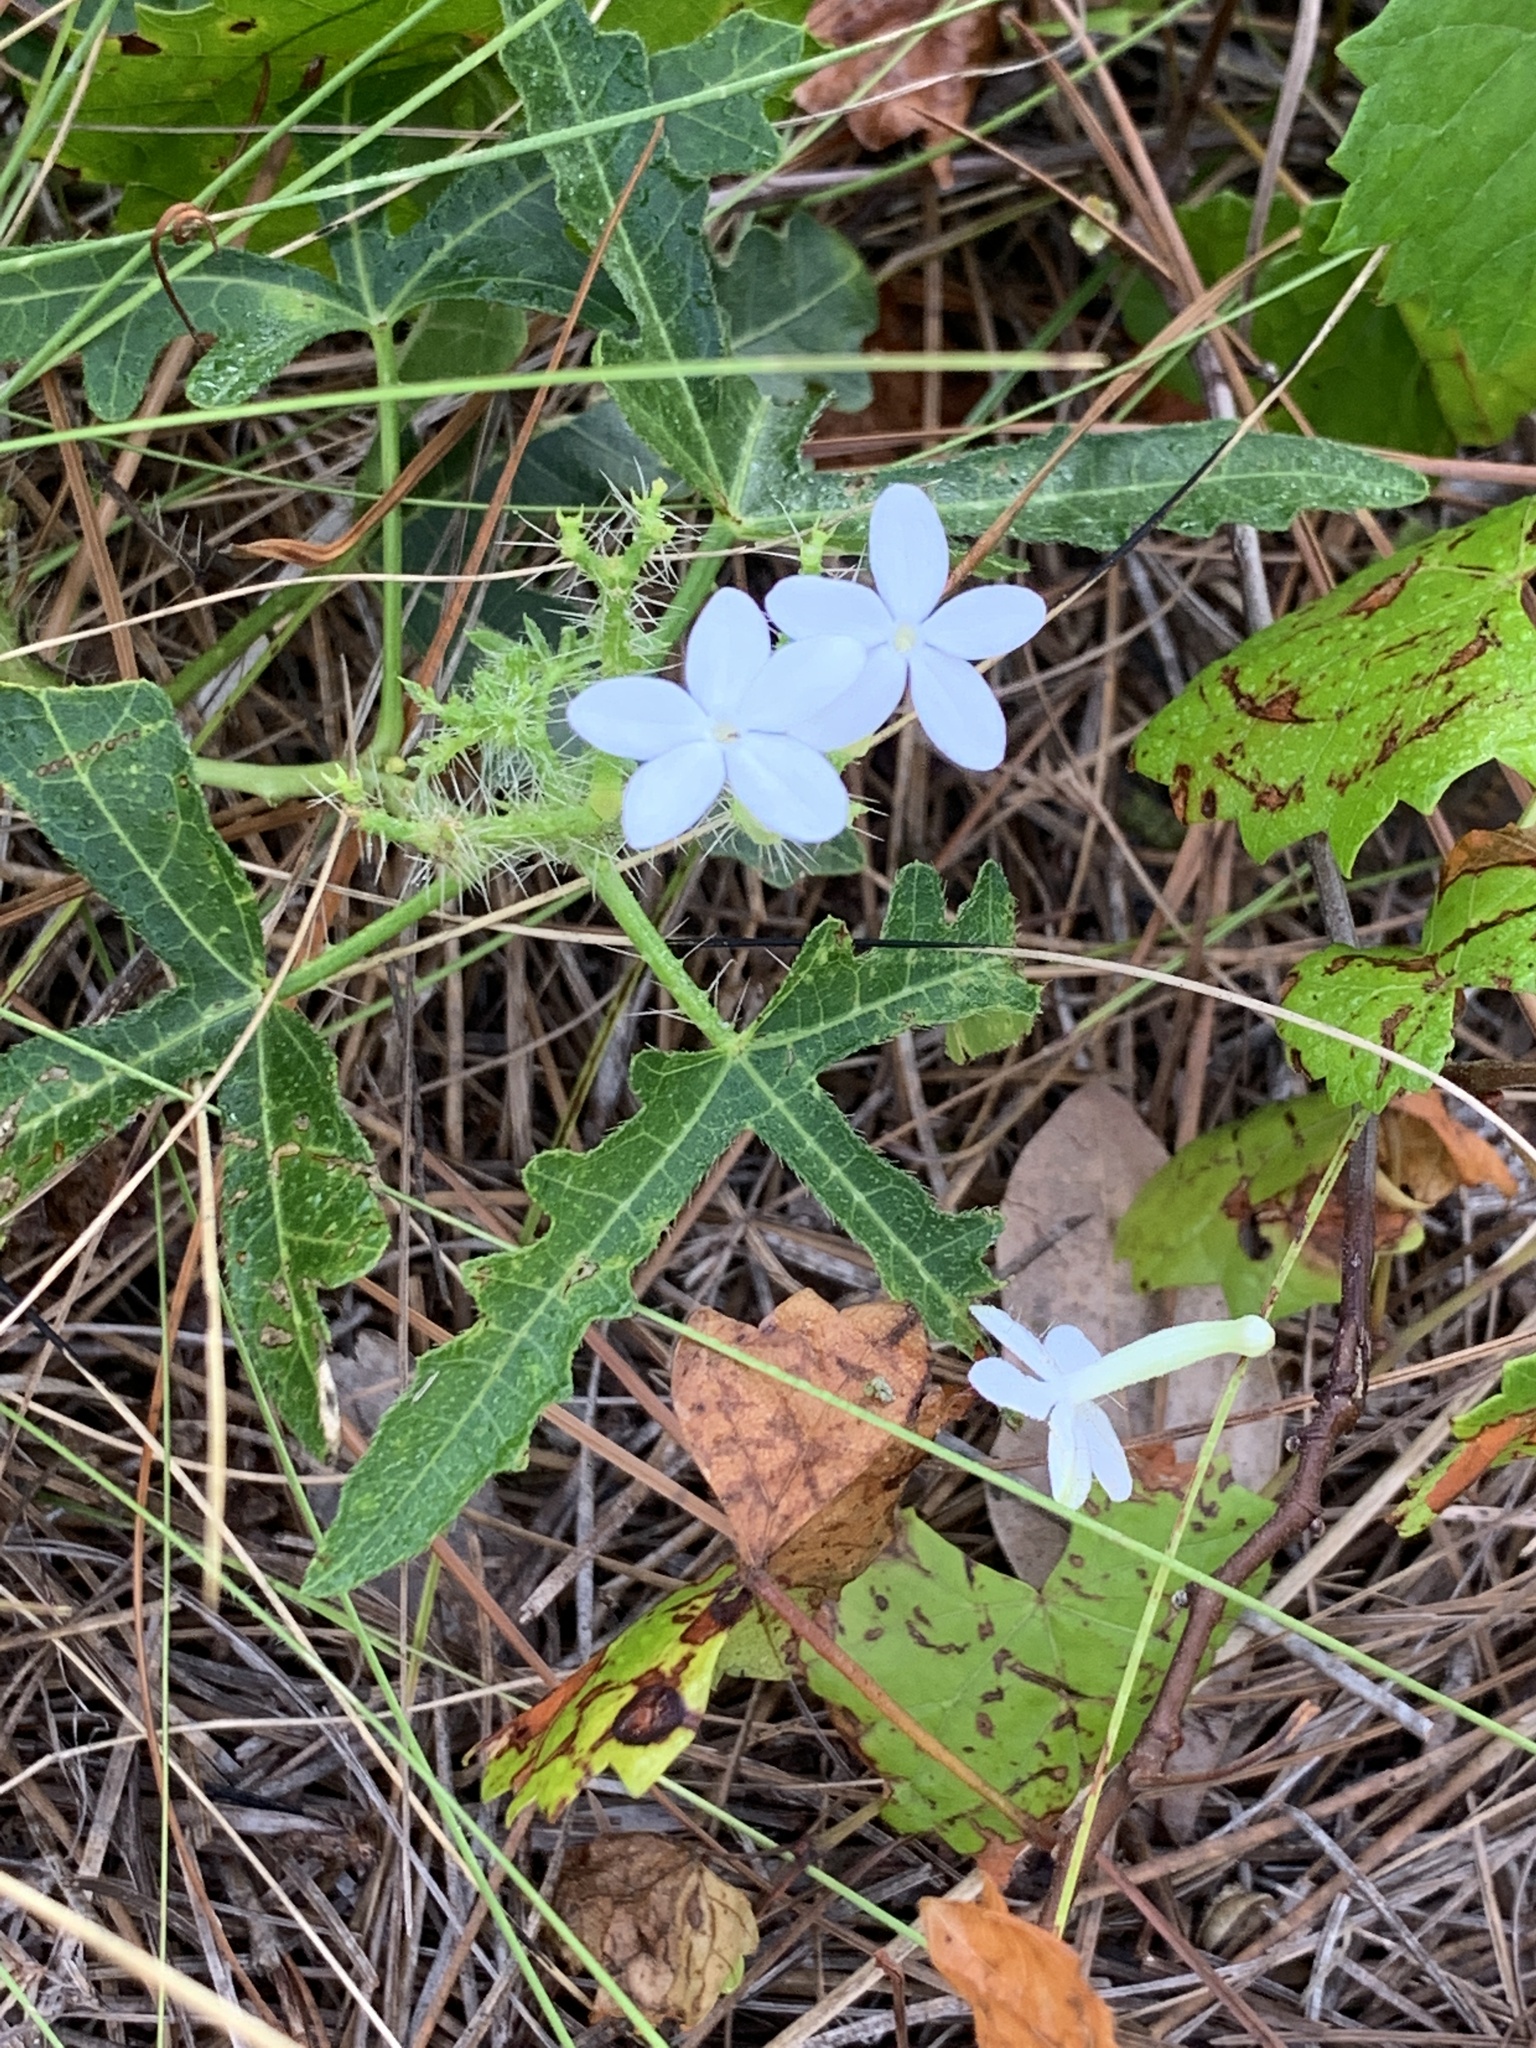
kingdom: Plantae
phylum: Tracheophyta
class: Magnoliopsida
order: Malpighiales
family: Euphorbiaceae
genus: Cnidoscolus
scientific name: Cnidoscolus stimulosus
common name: Bull-nettle
